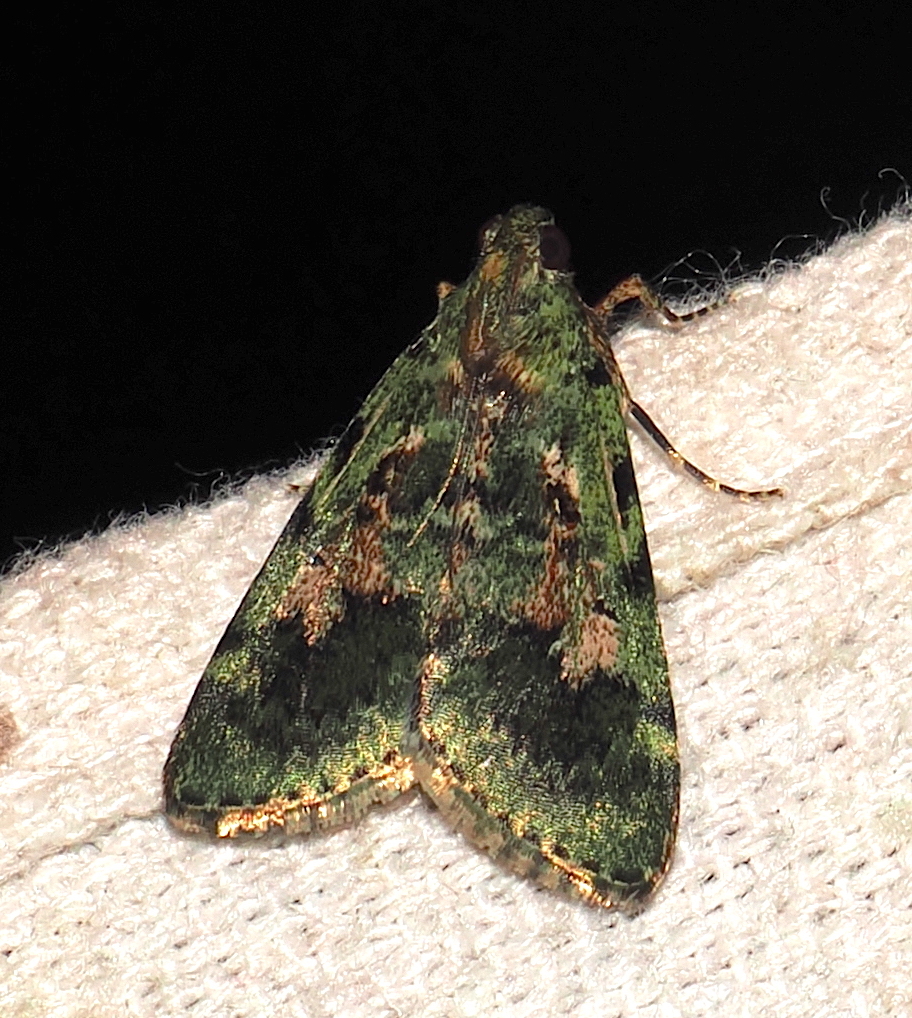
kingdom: Animalia
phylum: Arthropoda
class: Insecta
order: Lepidoptera
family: Pyralidae
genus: Deuterollyta
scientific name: Deuterollyta oediperalis
